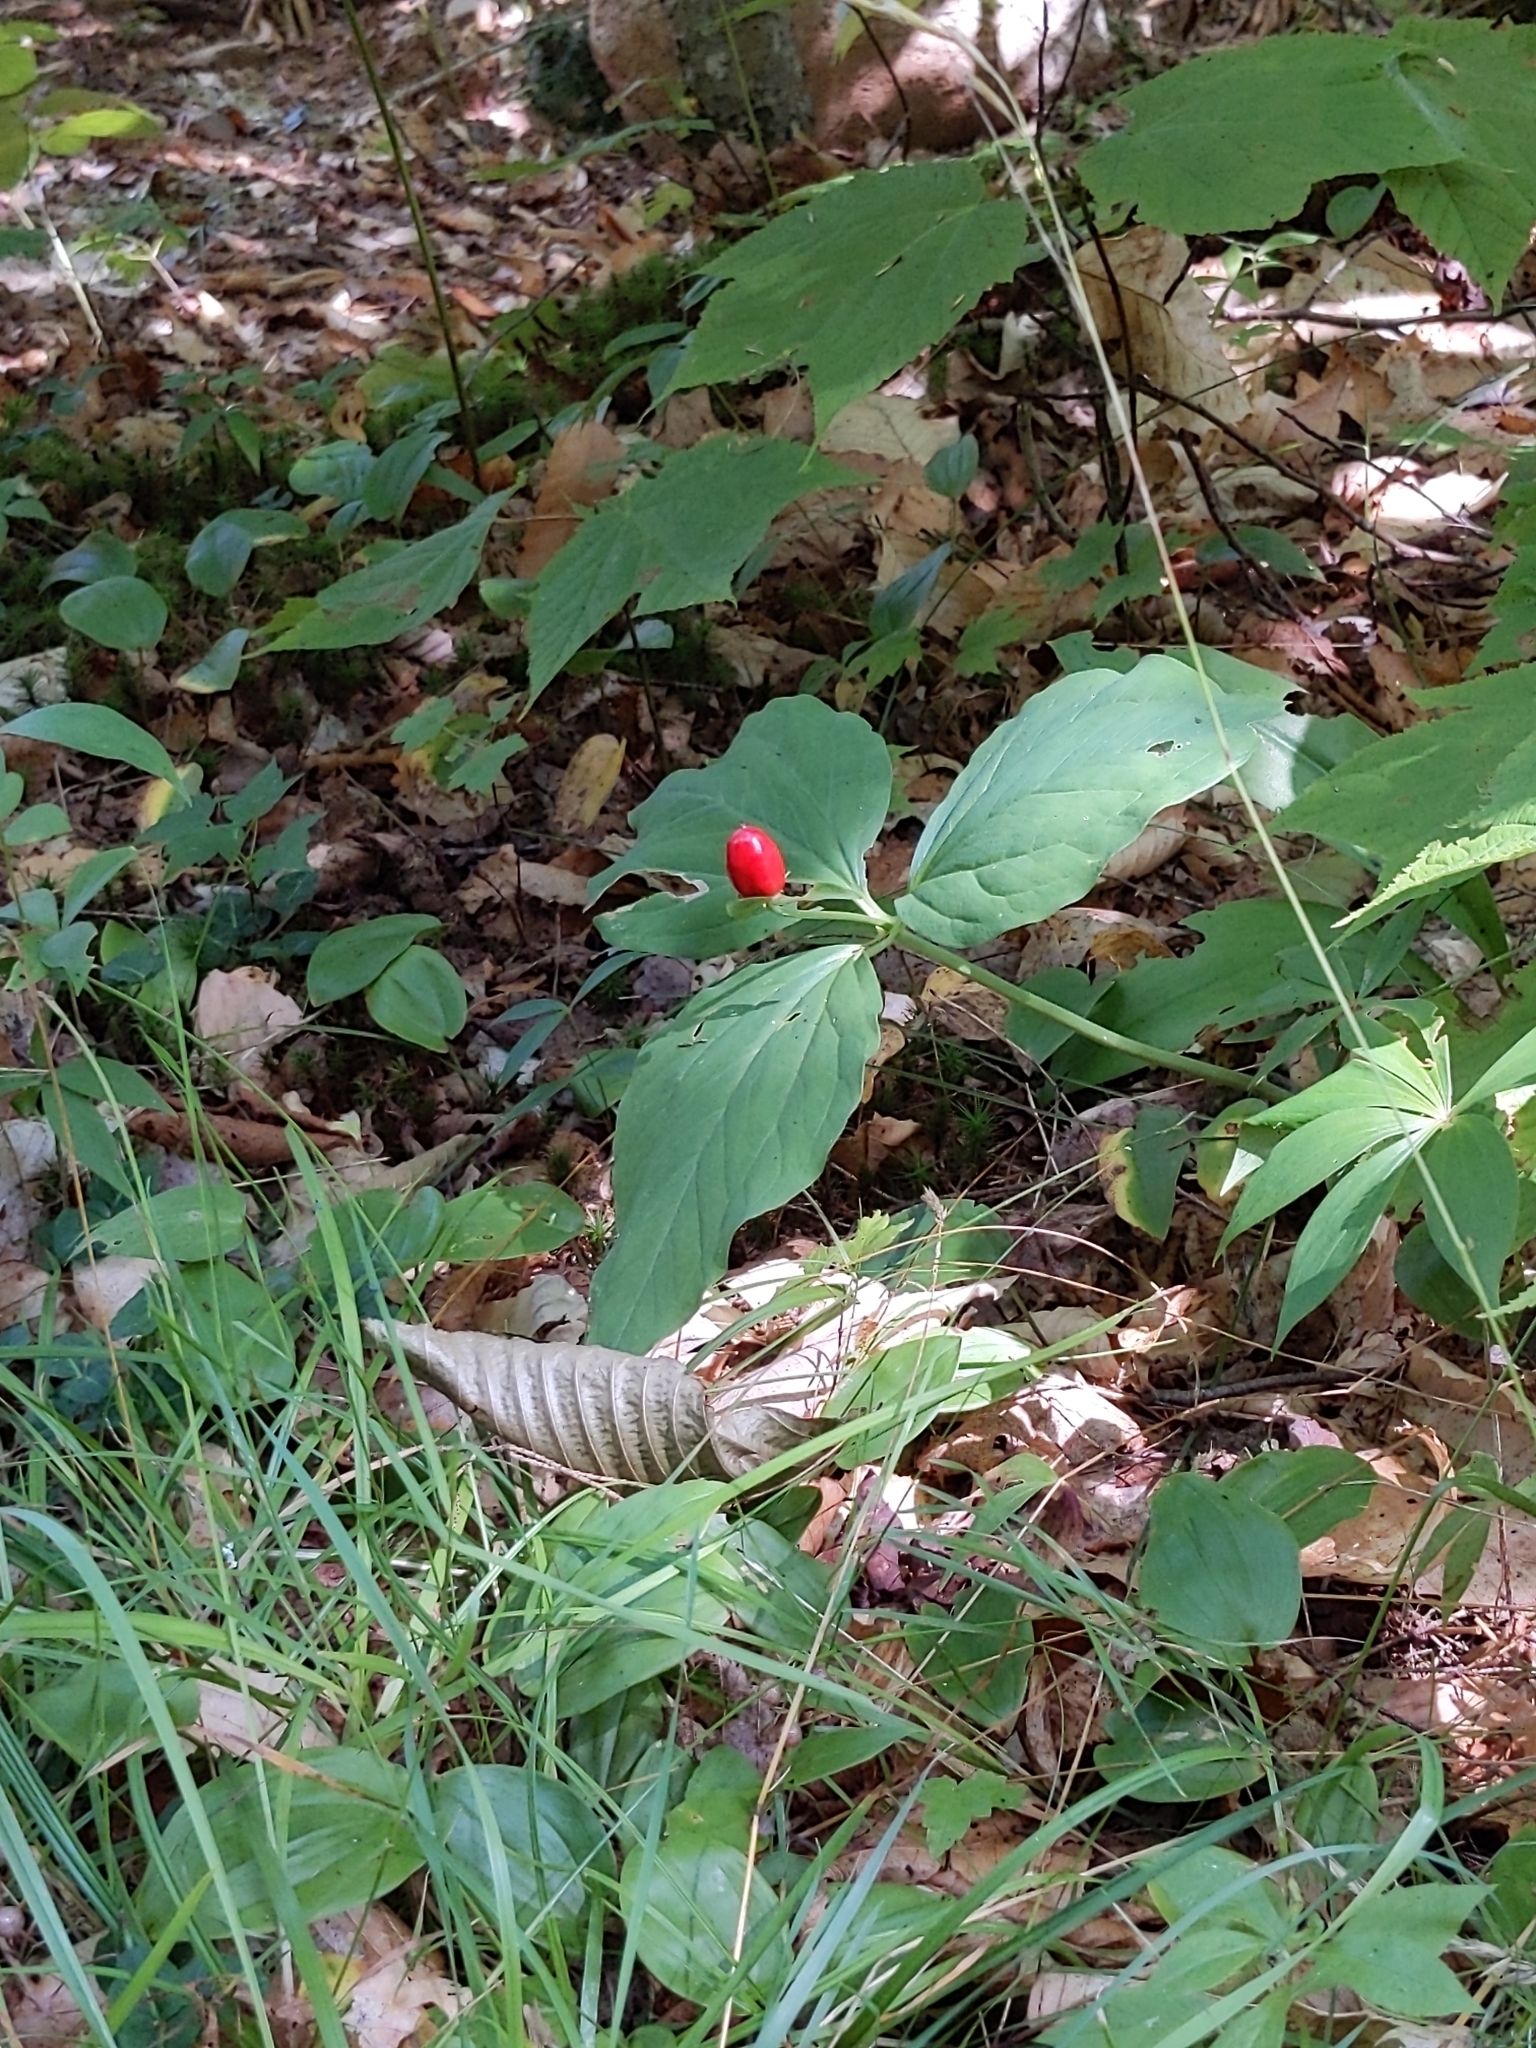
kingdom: Plantae
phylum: Tracheophyta
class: Liliopsida
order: Liliales
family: Melanthiaceae
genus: Trillium
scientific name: Trillium undulatum
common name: Paint trillium
